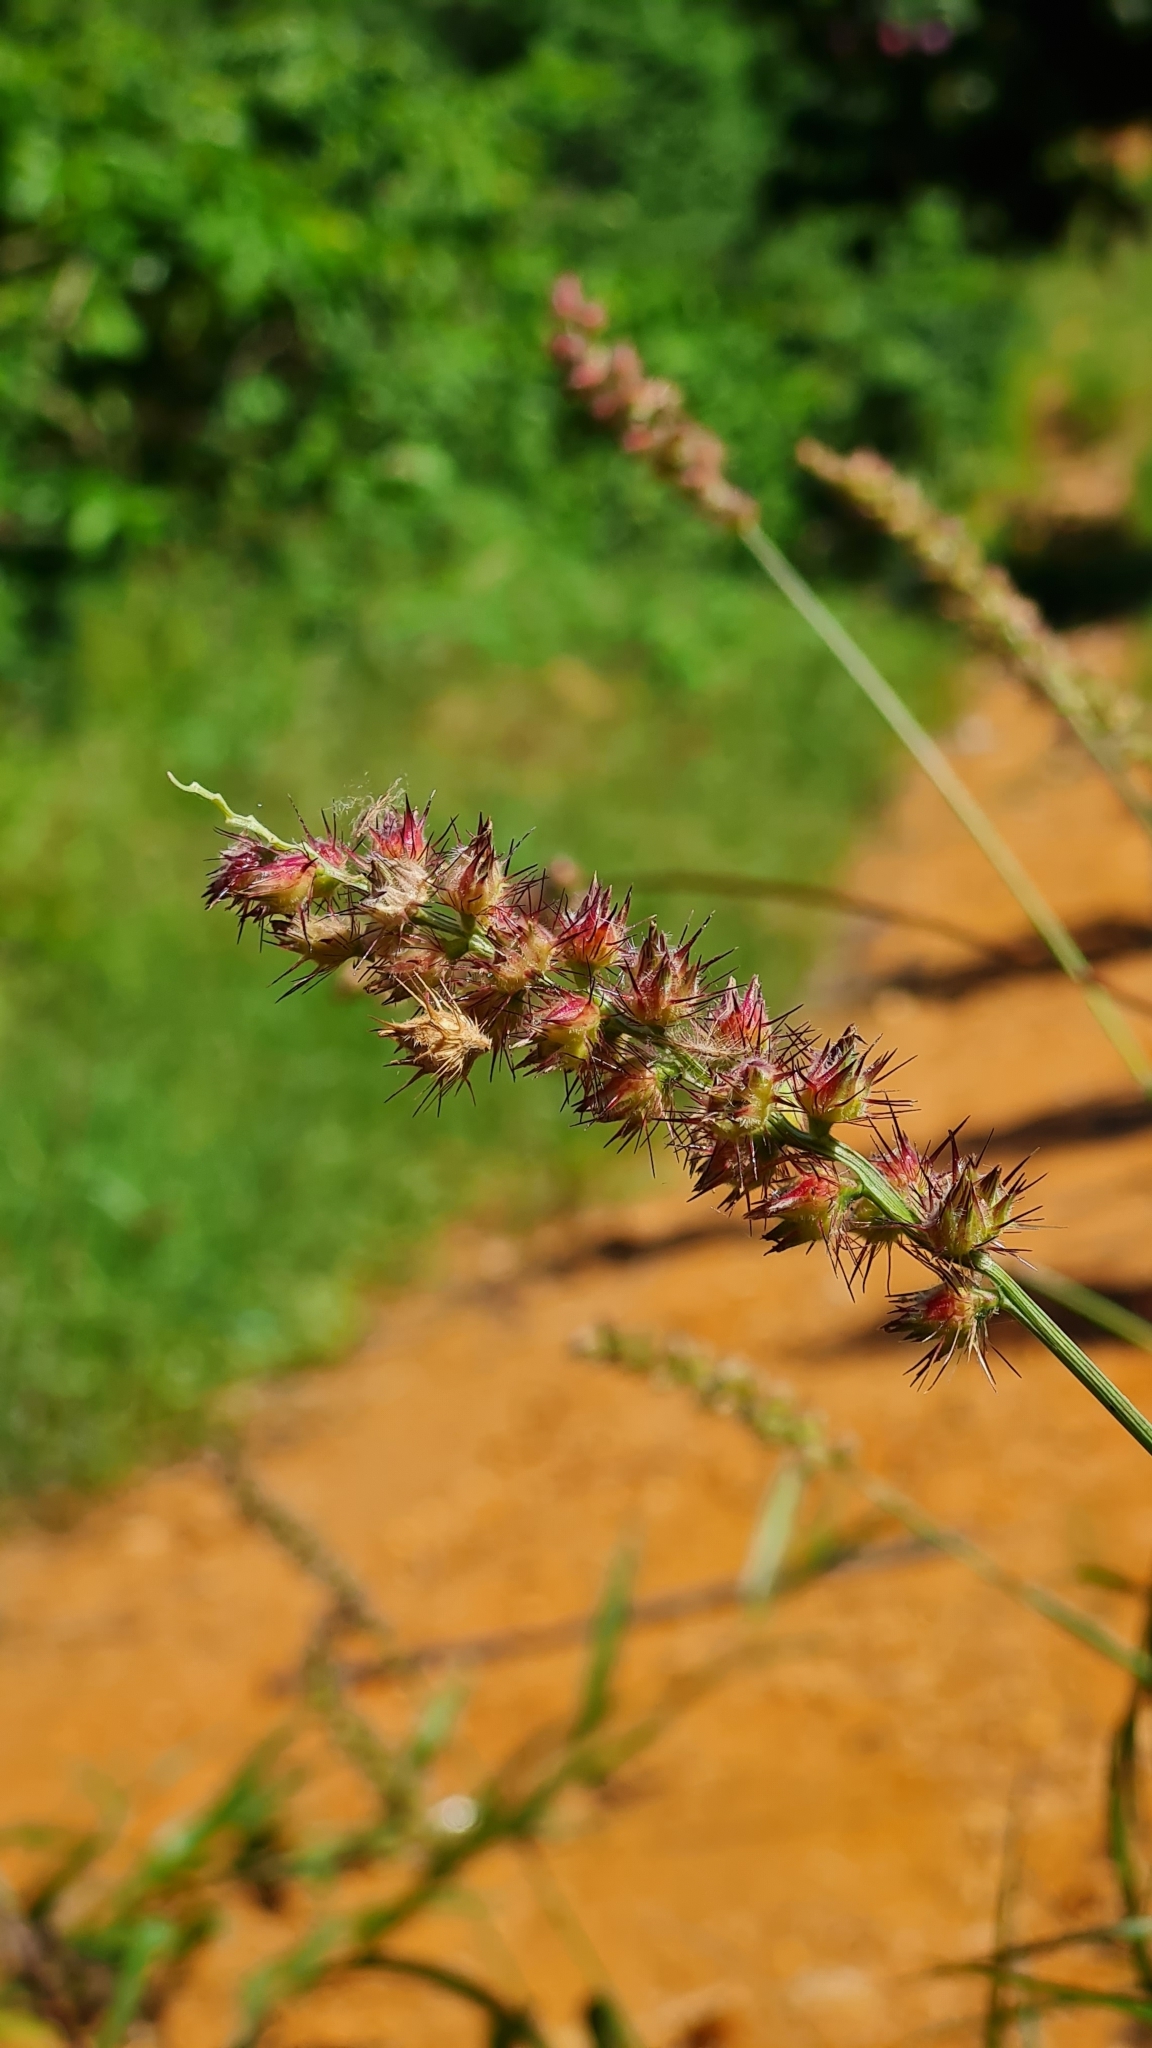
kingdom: Plantae
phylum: Tracheophyta
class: Liliopsida
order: Poales
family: Poaceae
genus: Cenchrus
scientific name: Cenchrus echinatus
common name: Southern sandbur
